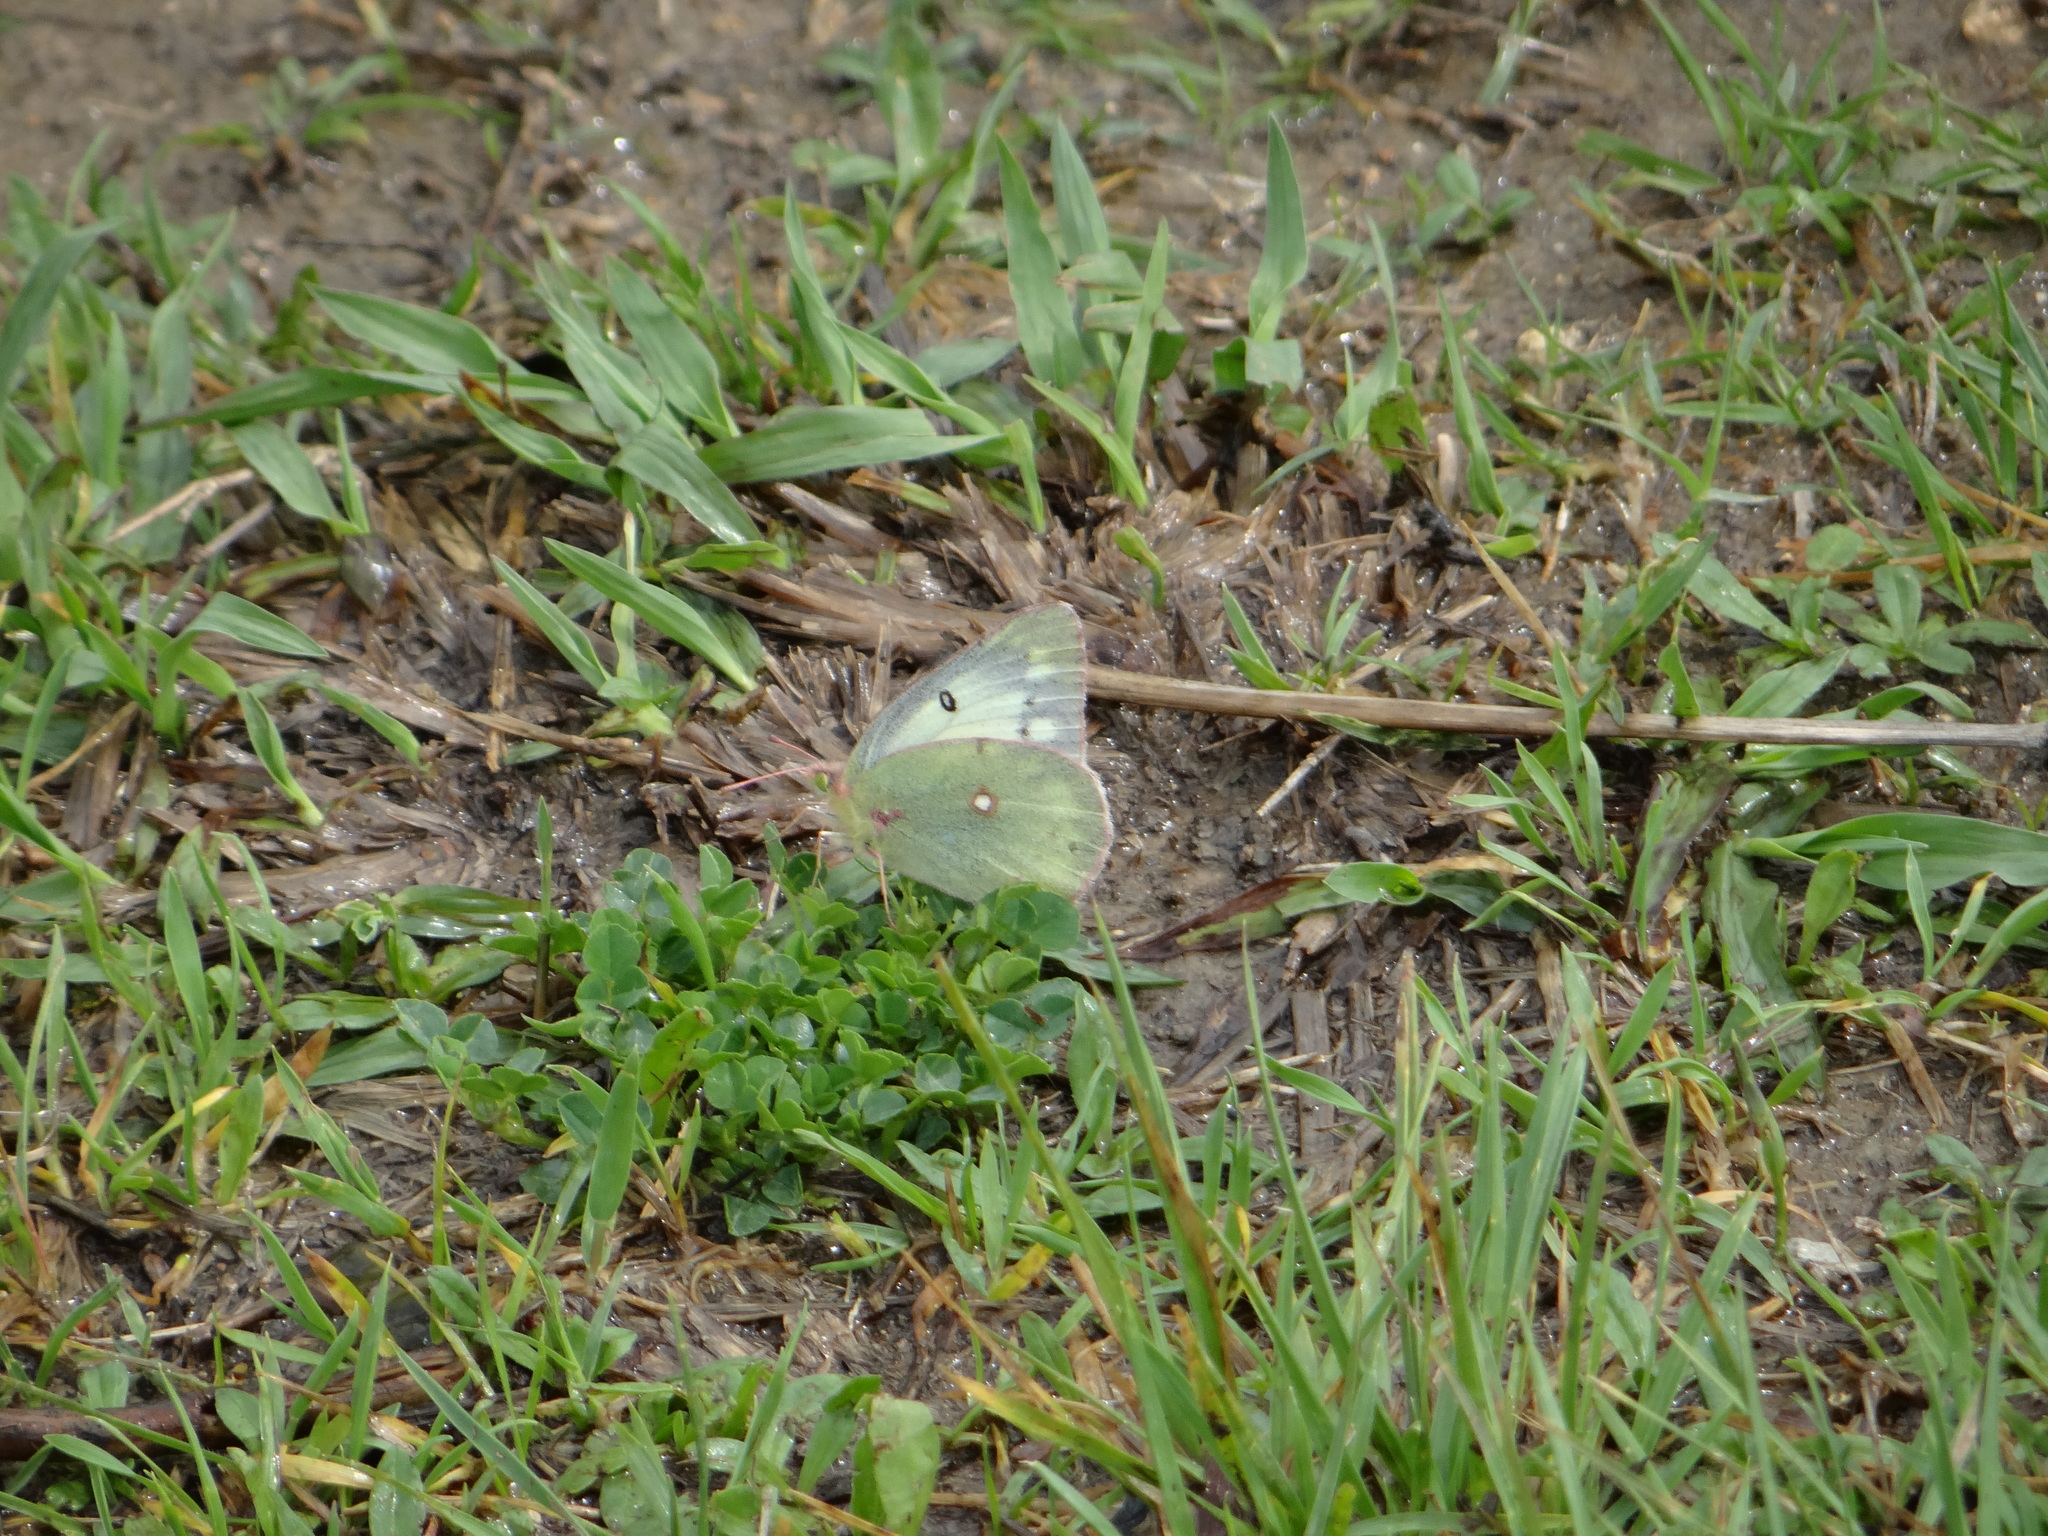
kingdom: Animalia
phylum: Arthropoda
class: Insecta
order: Lepidoptera
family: Pieridae
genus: Colias
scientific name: Colias eurytheme
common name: Alfalfa butterfly
